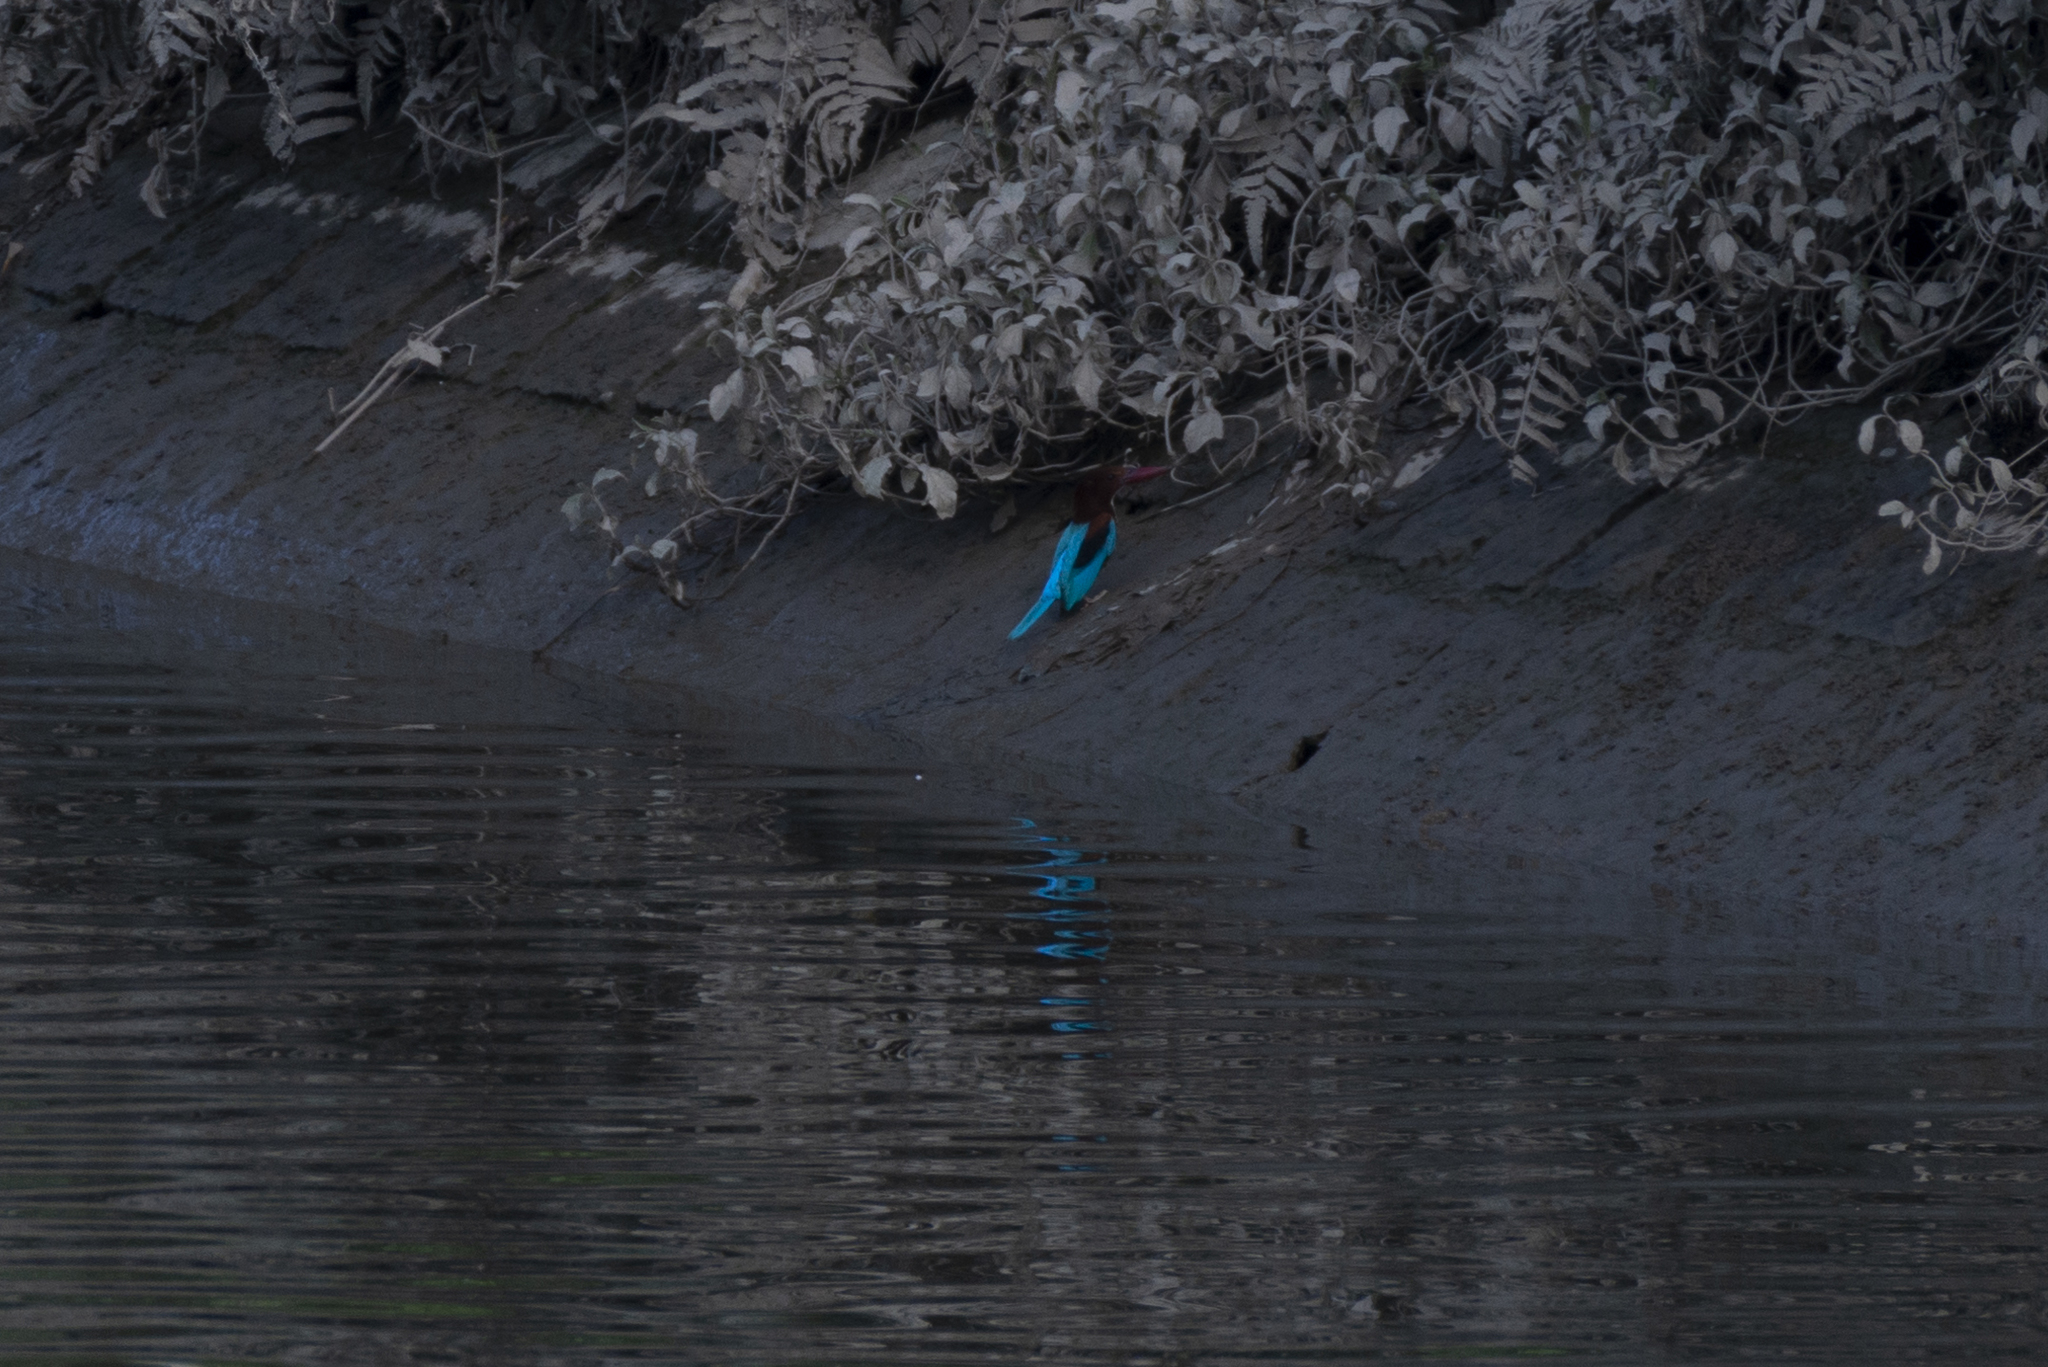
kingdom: Animalia
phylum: Chordata
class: Aves
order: Coraciiformes
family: Alcedinidae
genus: Halcyon
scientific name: Halcyon smyrnensis
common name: White-throated kingfisher
